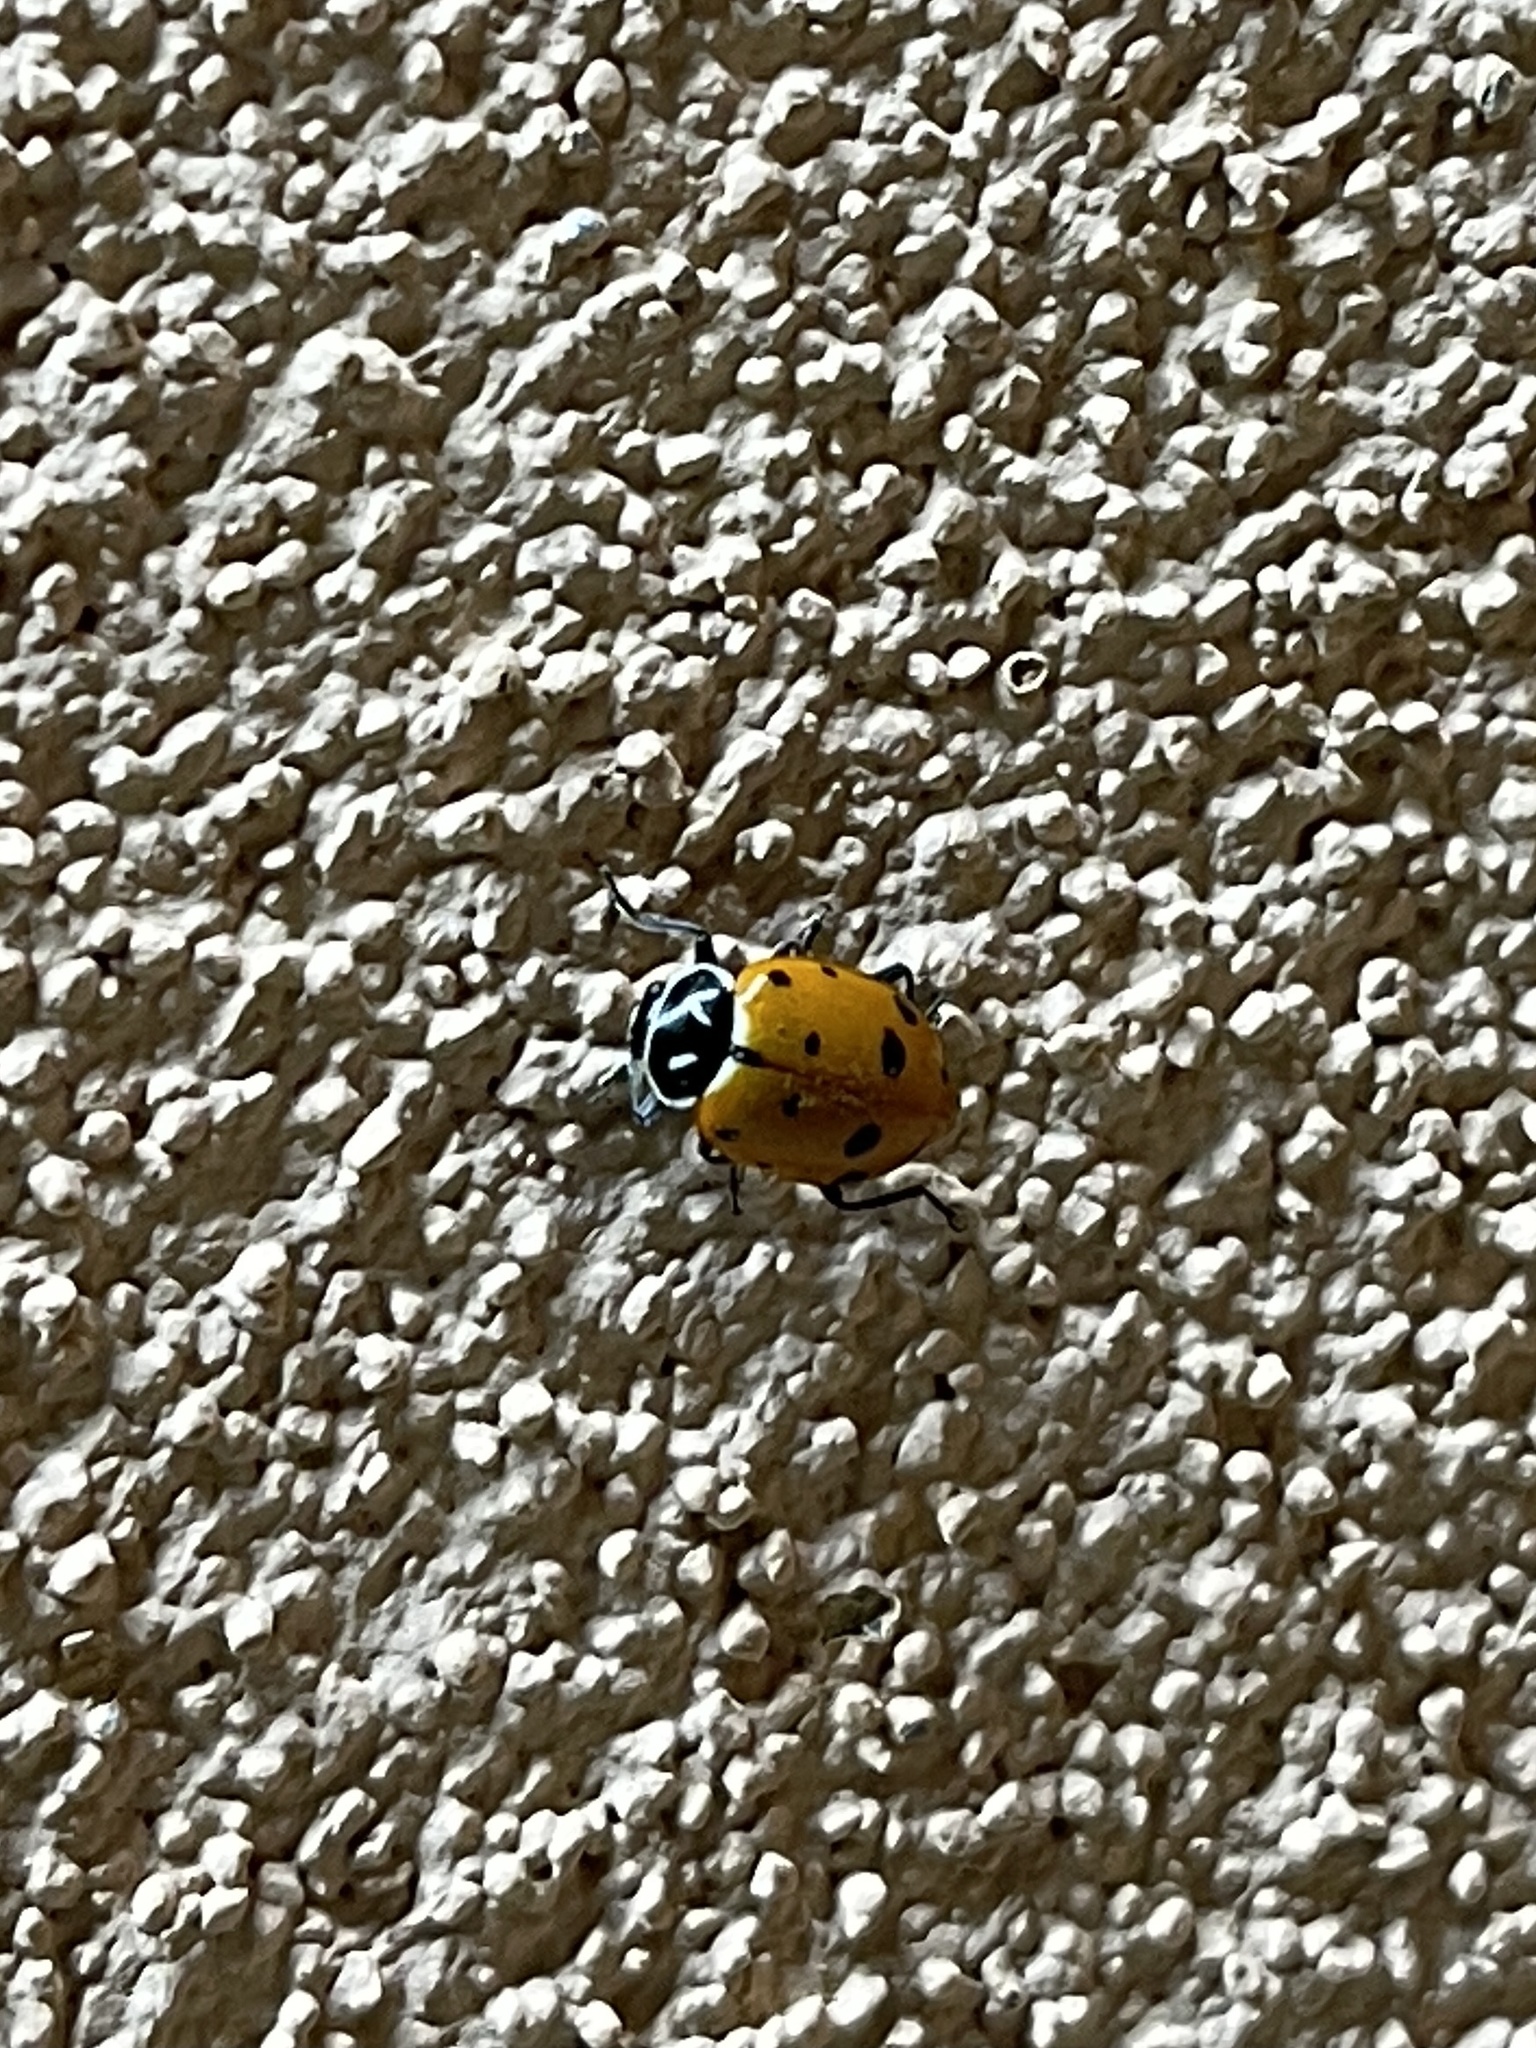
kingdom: Animalia
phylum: Arthropoda
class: Insecta
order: Coleoptera
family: Coccinellidae
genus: Hippodamia
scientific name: Hippodamia convergens
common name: Convergent lady beetle
